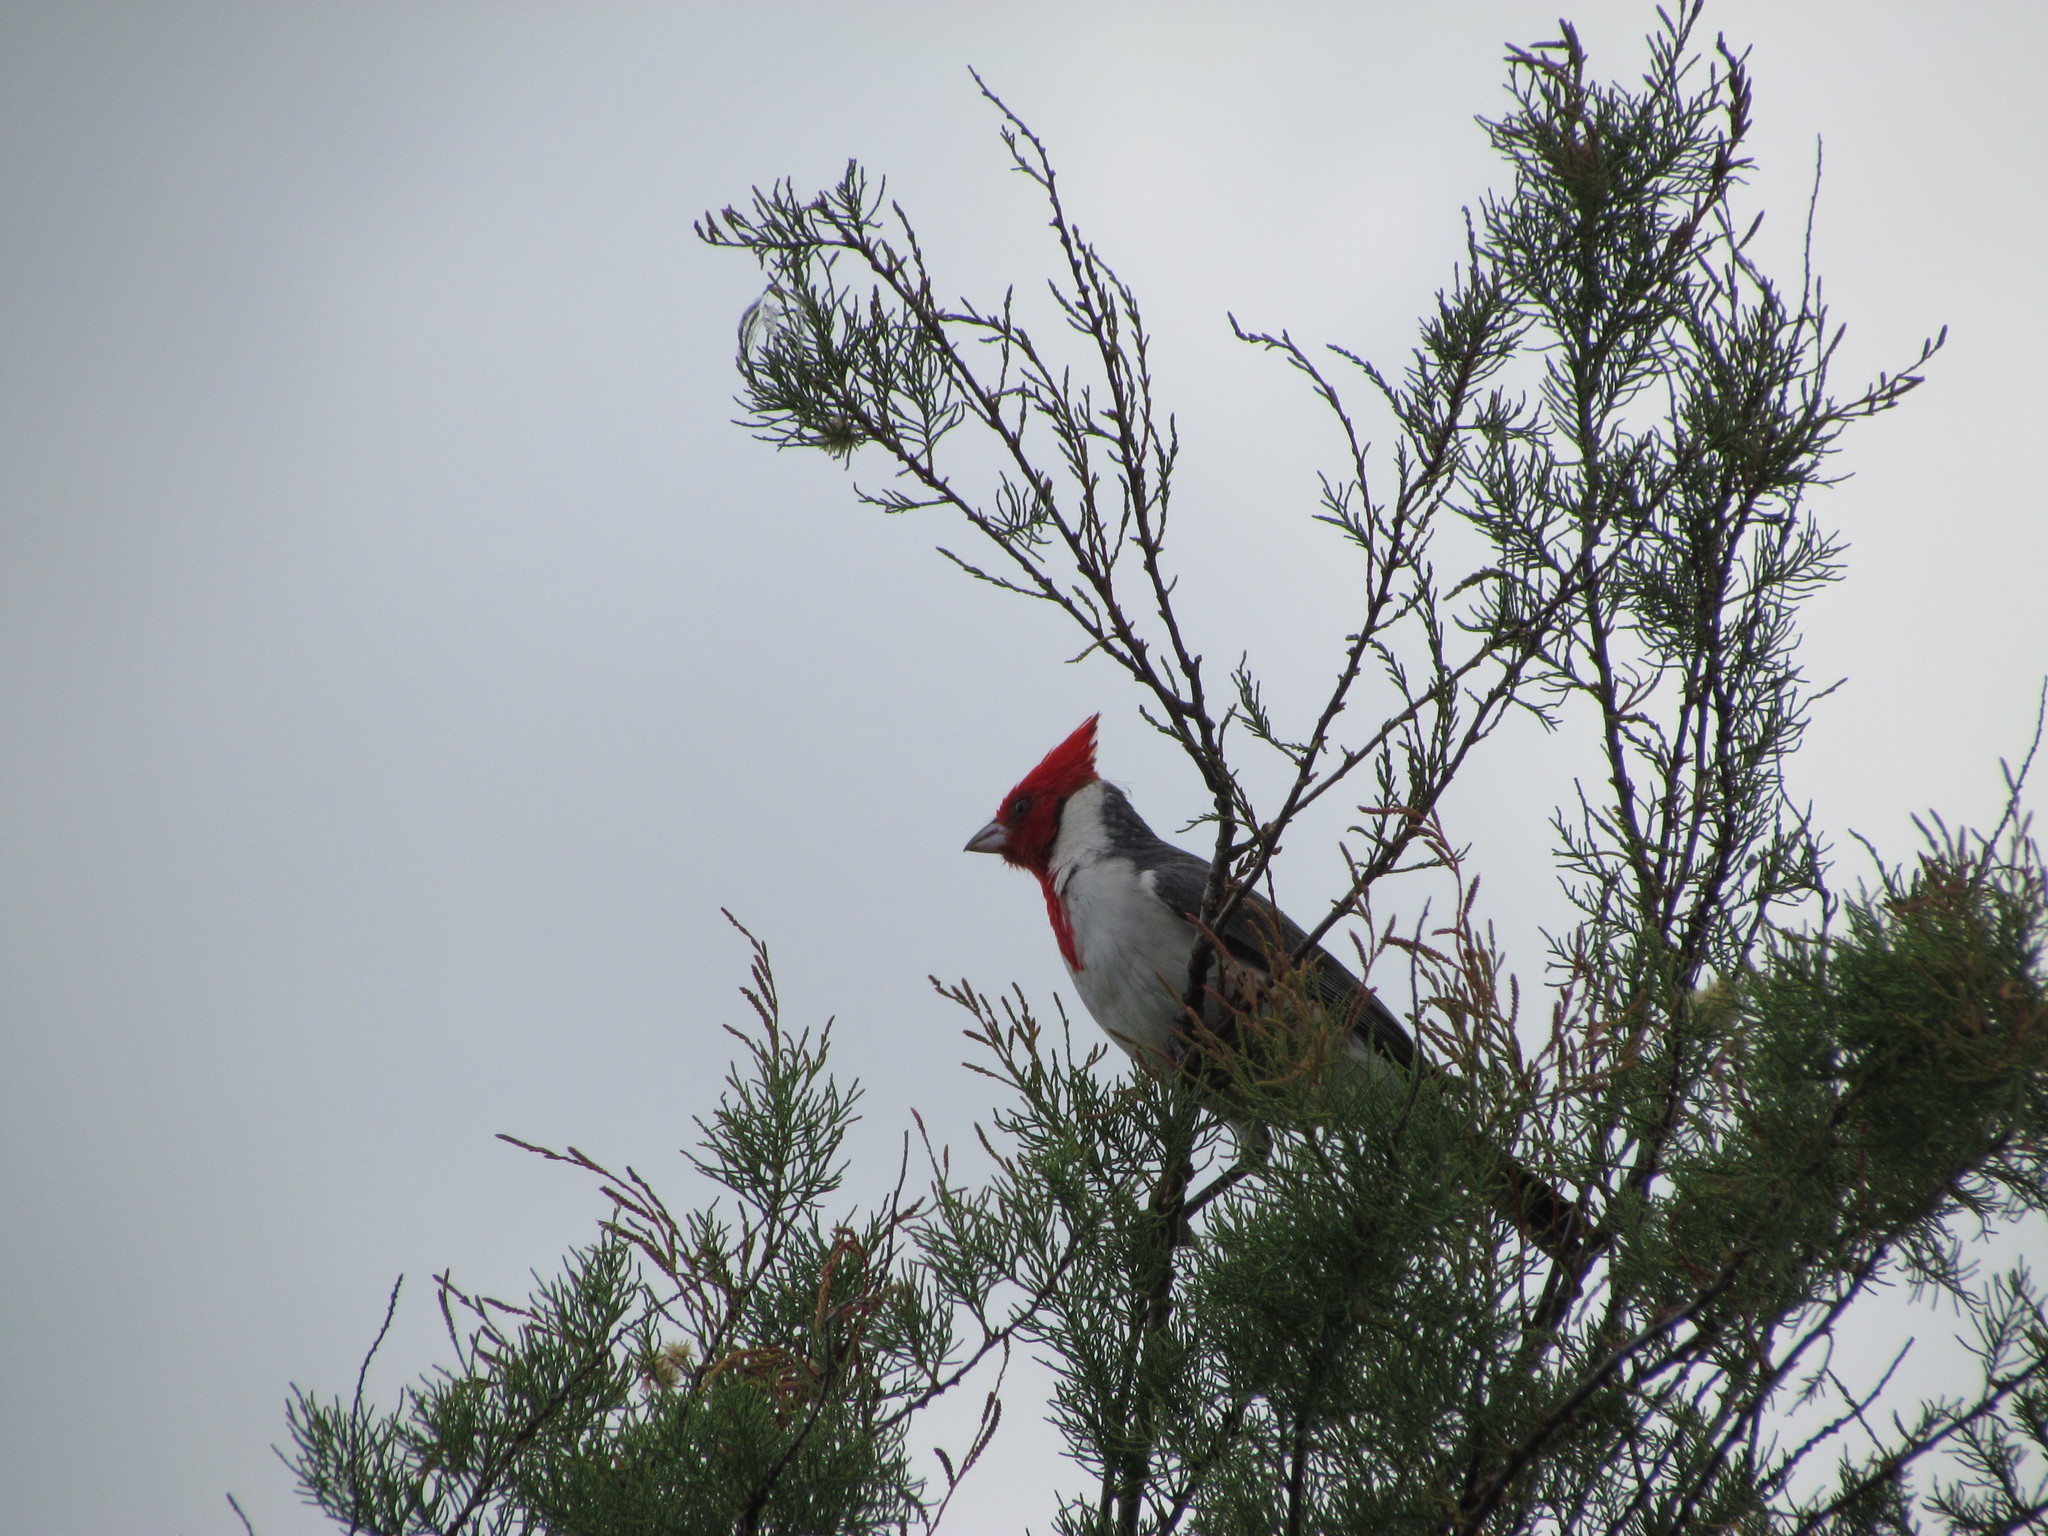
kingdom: Animalia
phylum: Chordata
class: Aves
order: Passeriformes
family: Thraupidae
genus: Paroaria
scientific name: Paroaria coronata
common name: Red-crested cardinal
